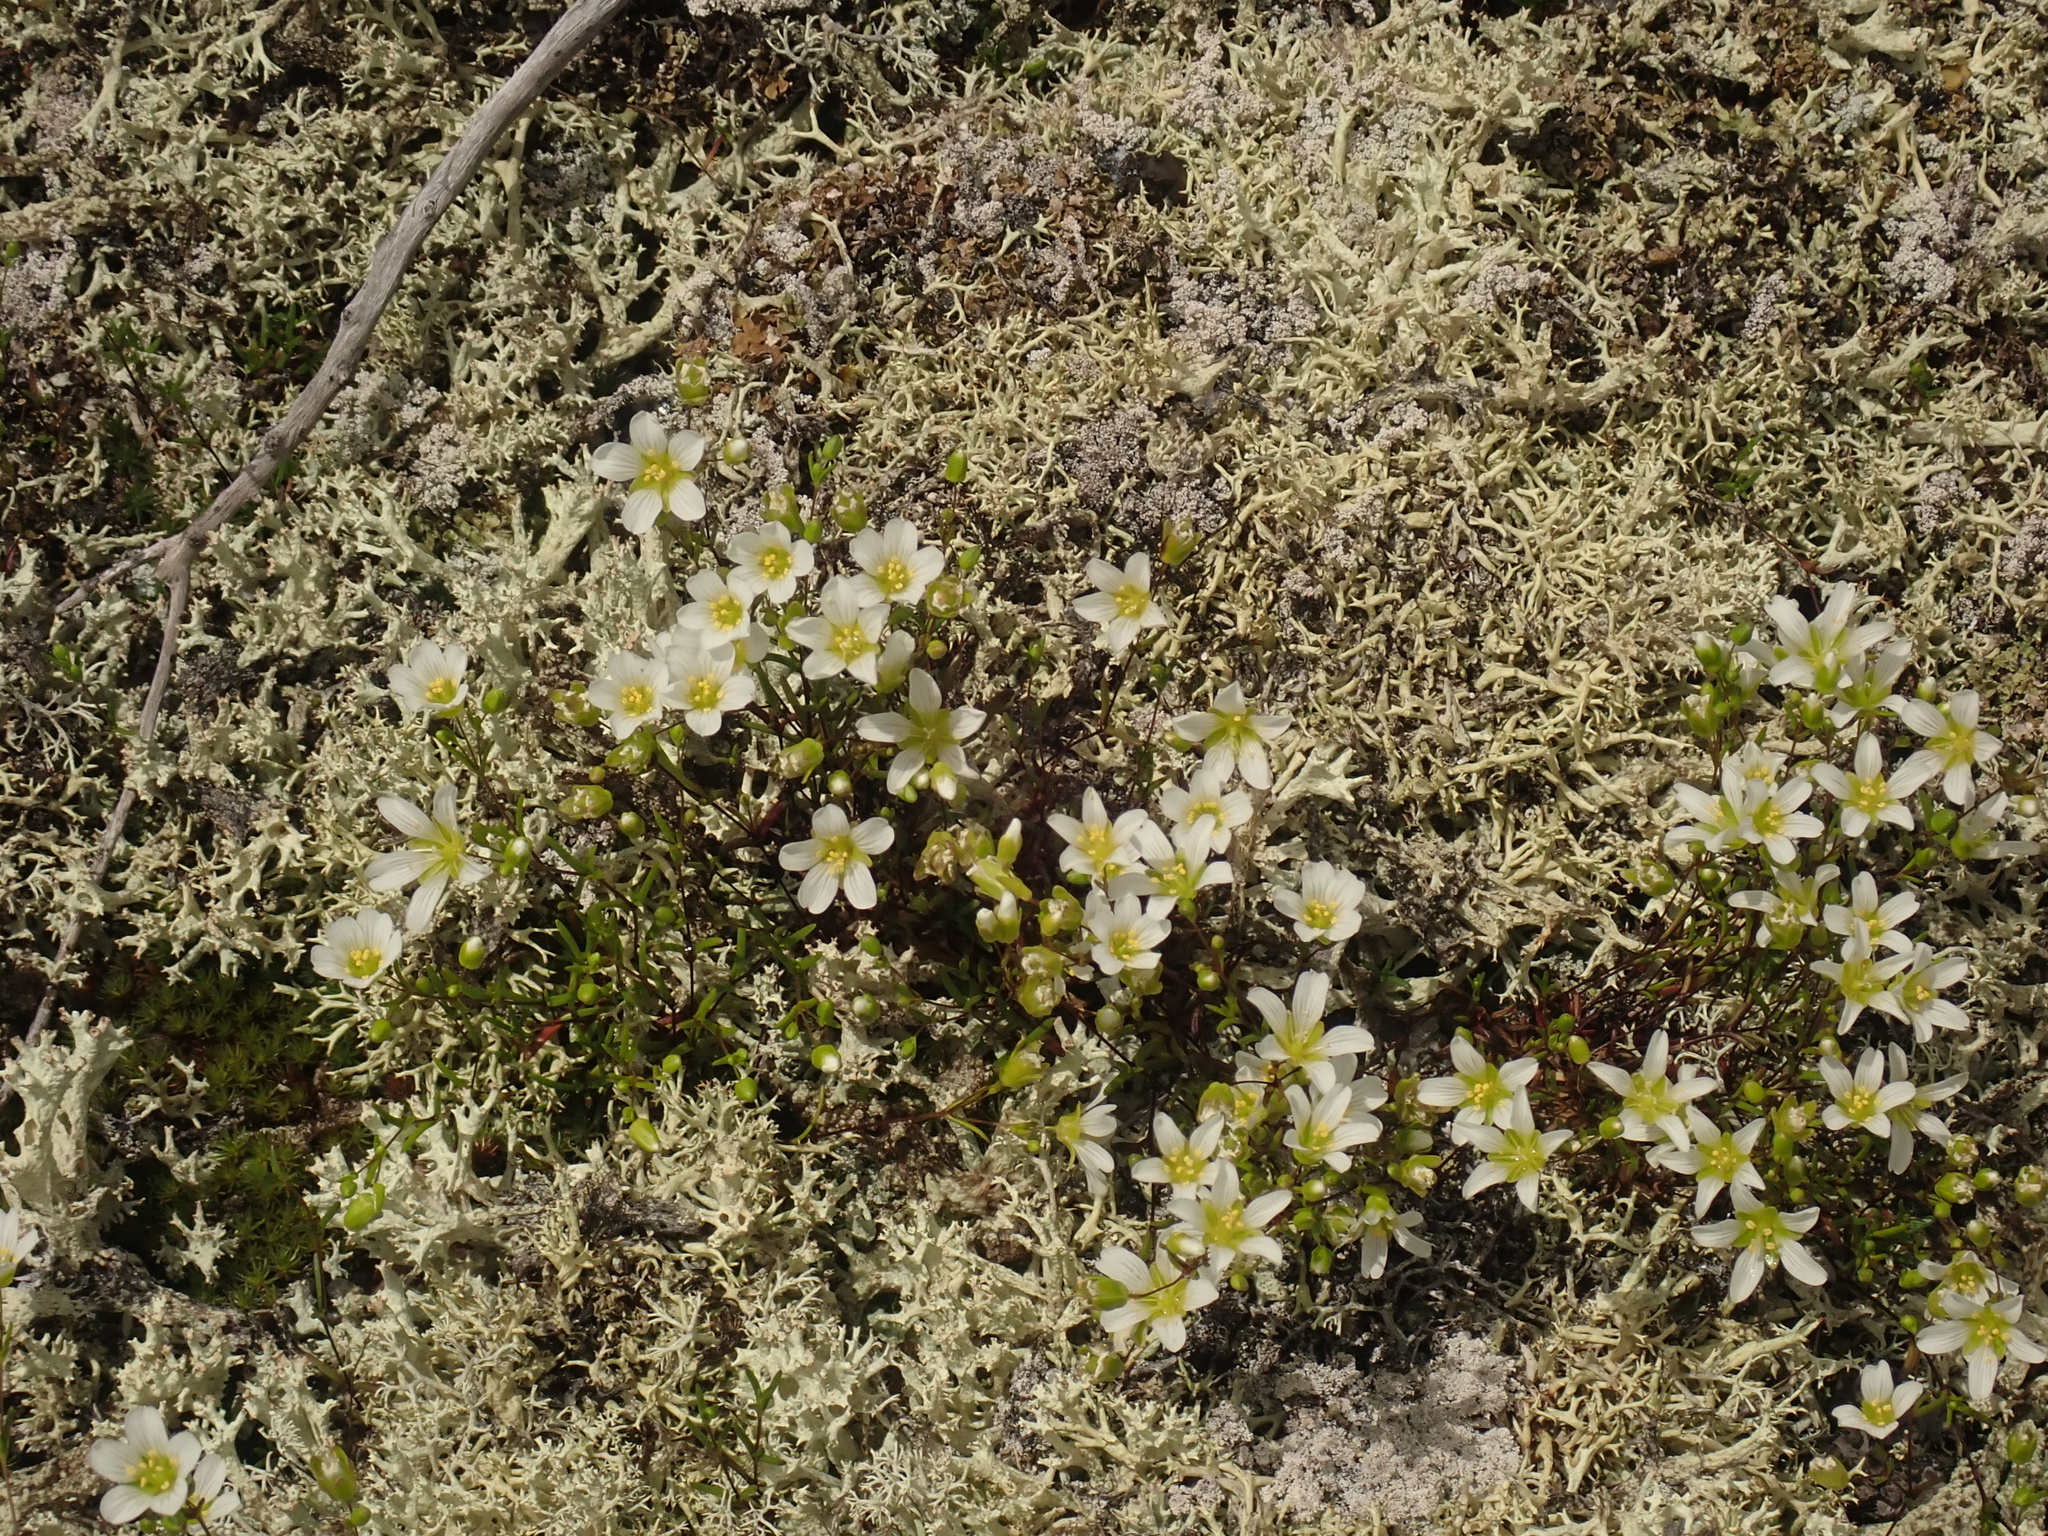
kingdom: Plantae
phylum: Tracheophyta
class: Magnoliopsida
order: Caryophyllales
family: Caryophyllaceae
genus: Geocarpon
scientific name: Geocarpon groenlandicum
